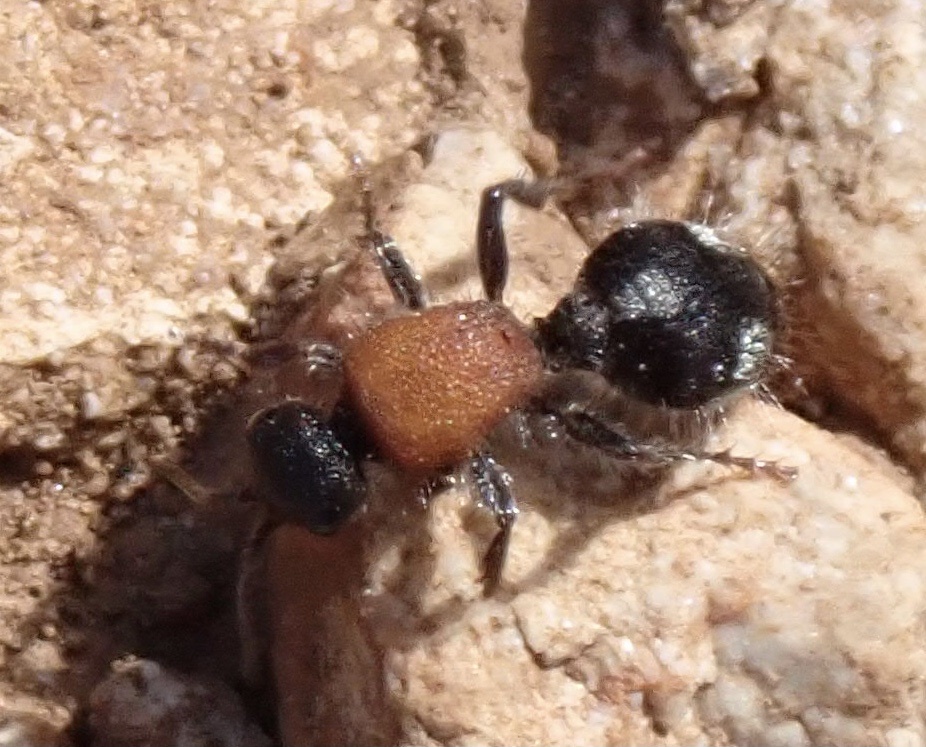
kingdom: Animalia
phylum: Arthropoda
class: Insecta
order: Hymenoptera
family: Mutillidae
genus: Dasylabris
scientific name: Dasylabris maura
